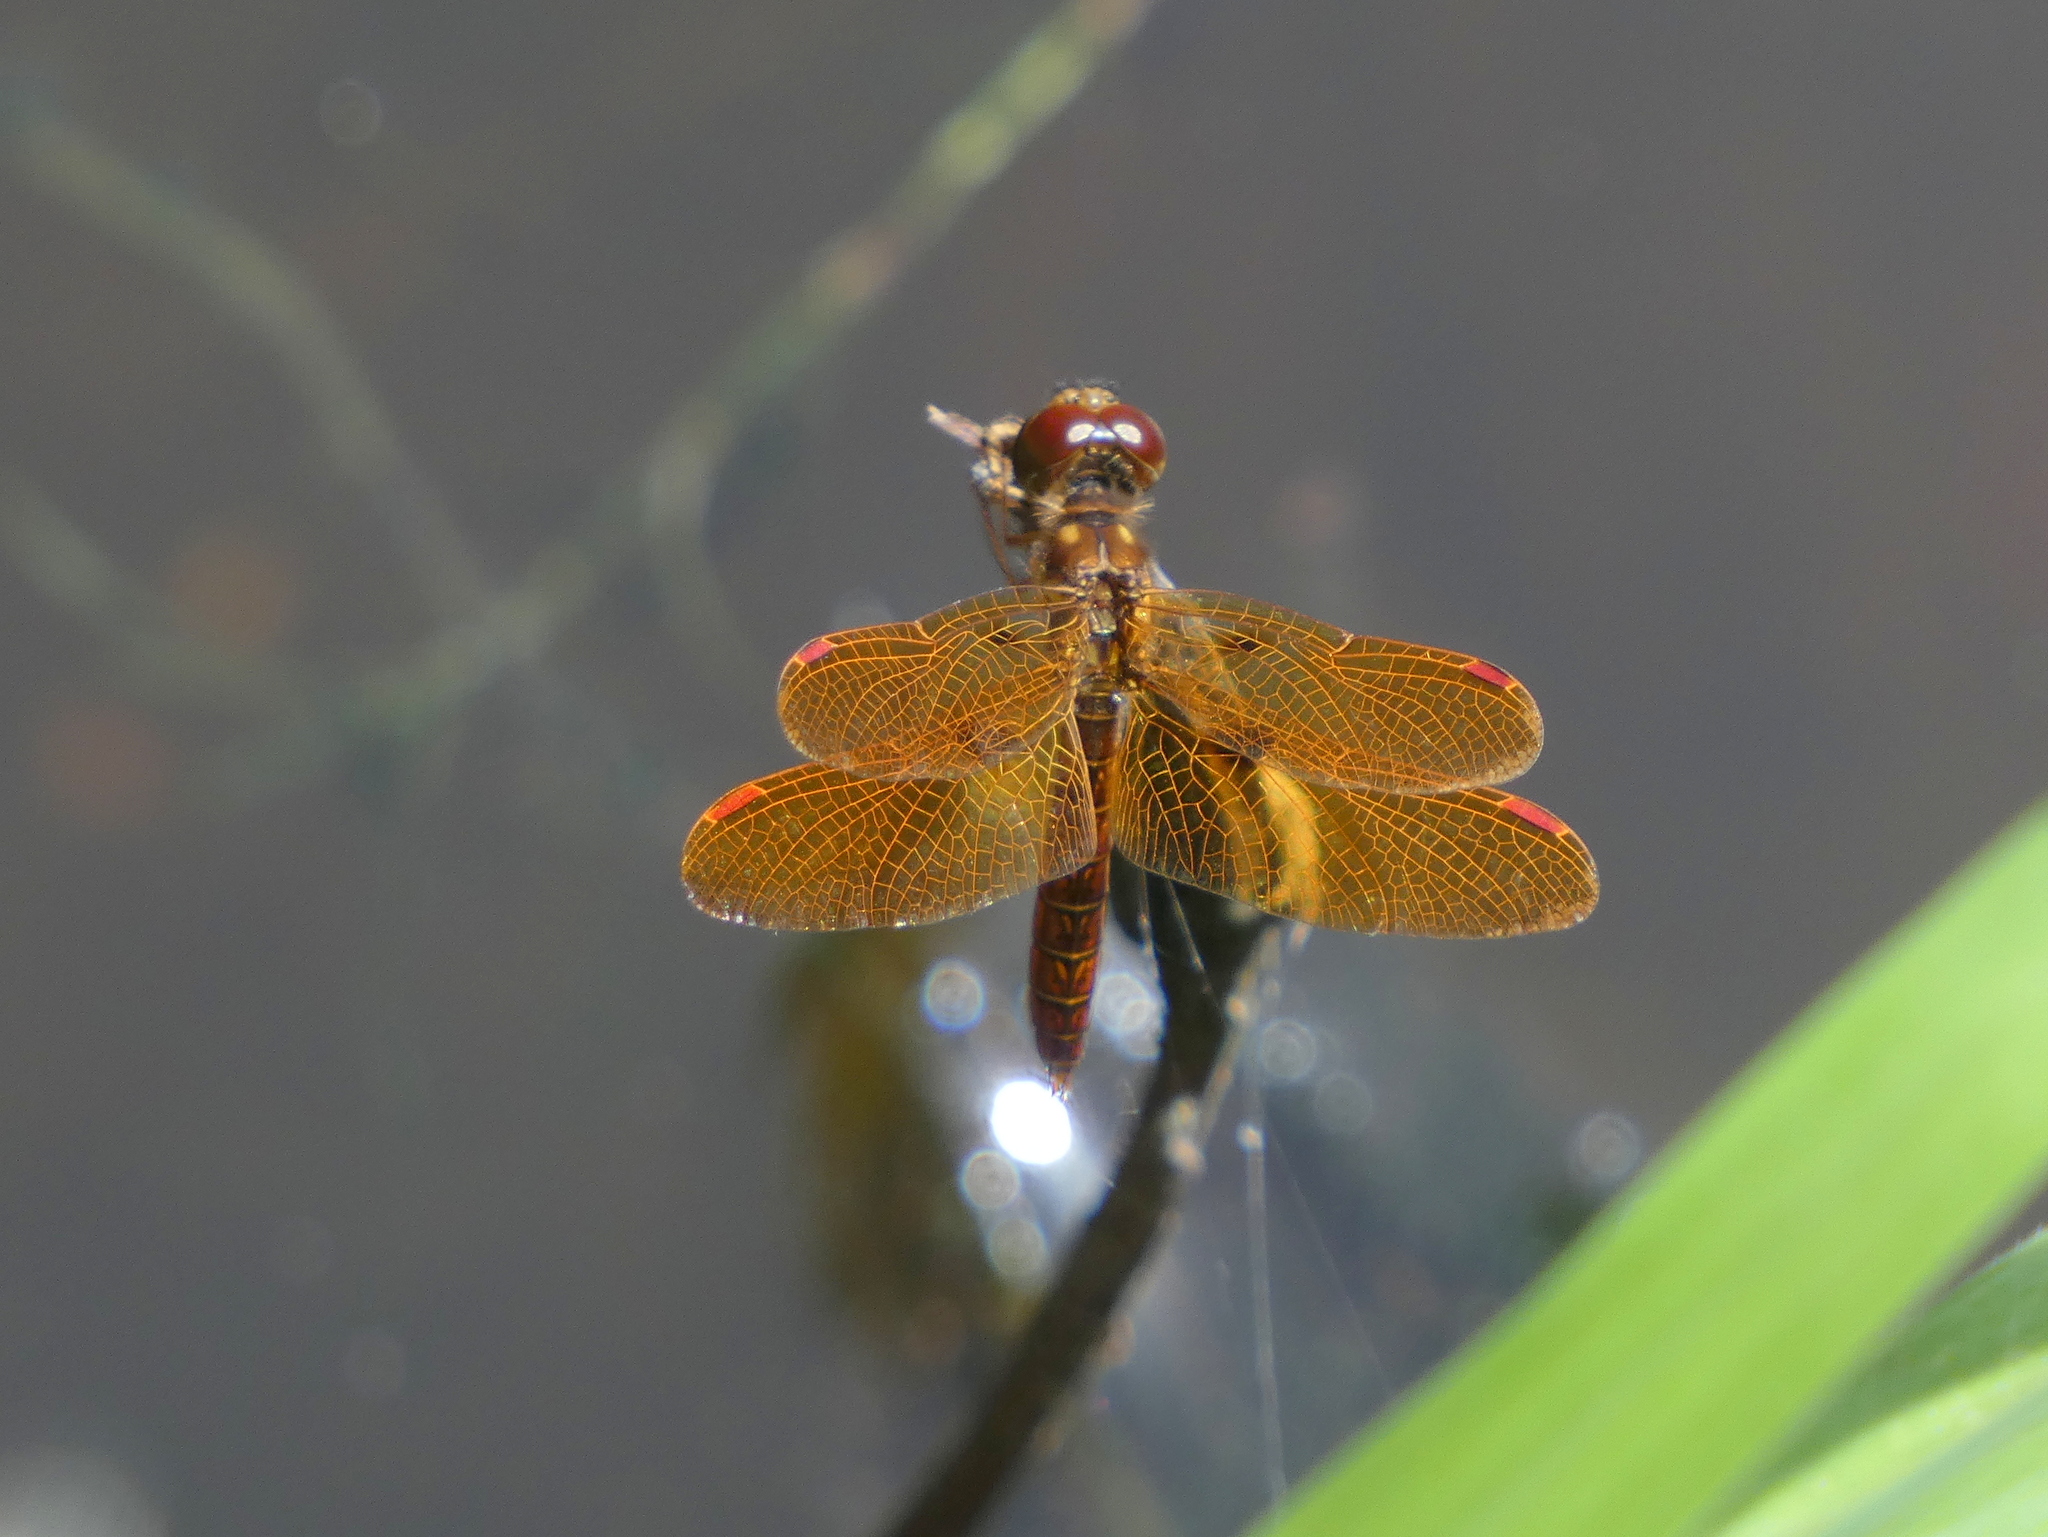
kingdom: Animalia
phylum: Arthropoda
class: Insecta
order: Odonata
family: Libellulidae
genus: Perithemis
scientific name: Perithemis tenera
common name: Eastern amberwing
